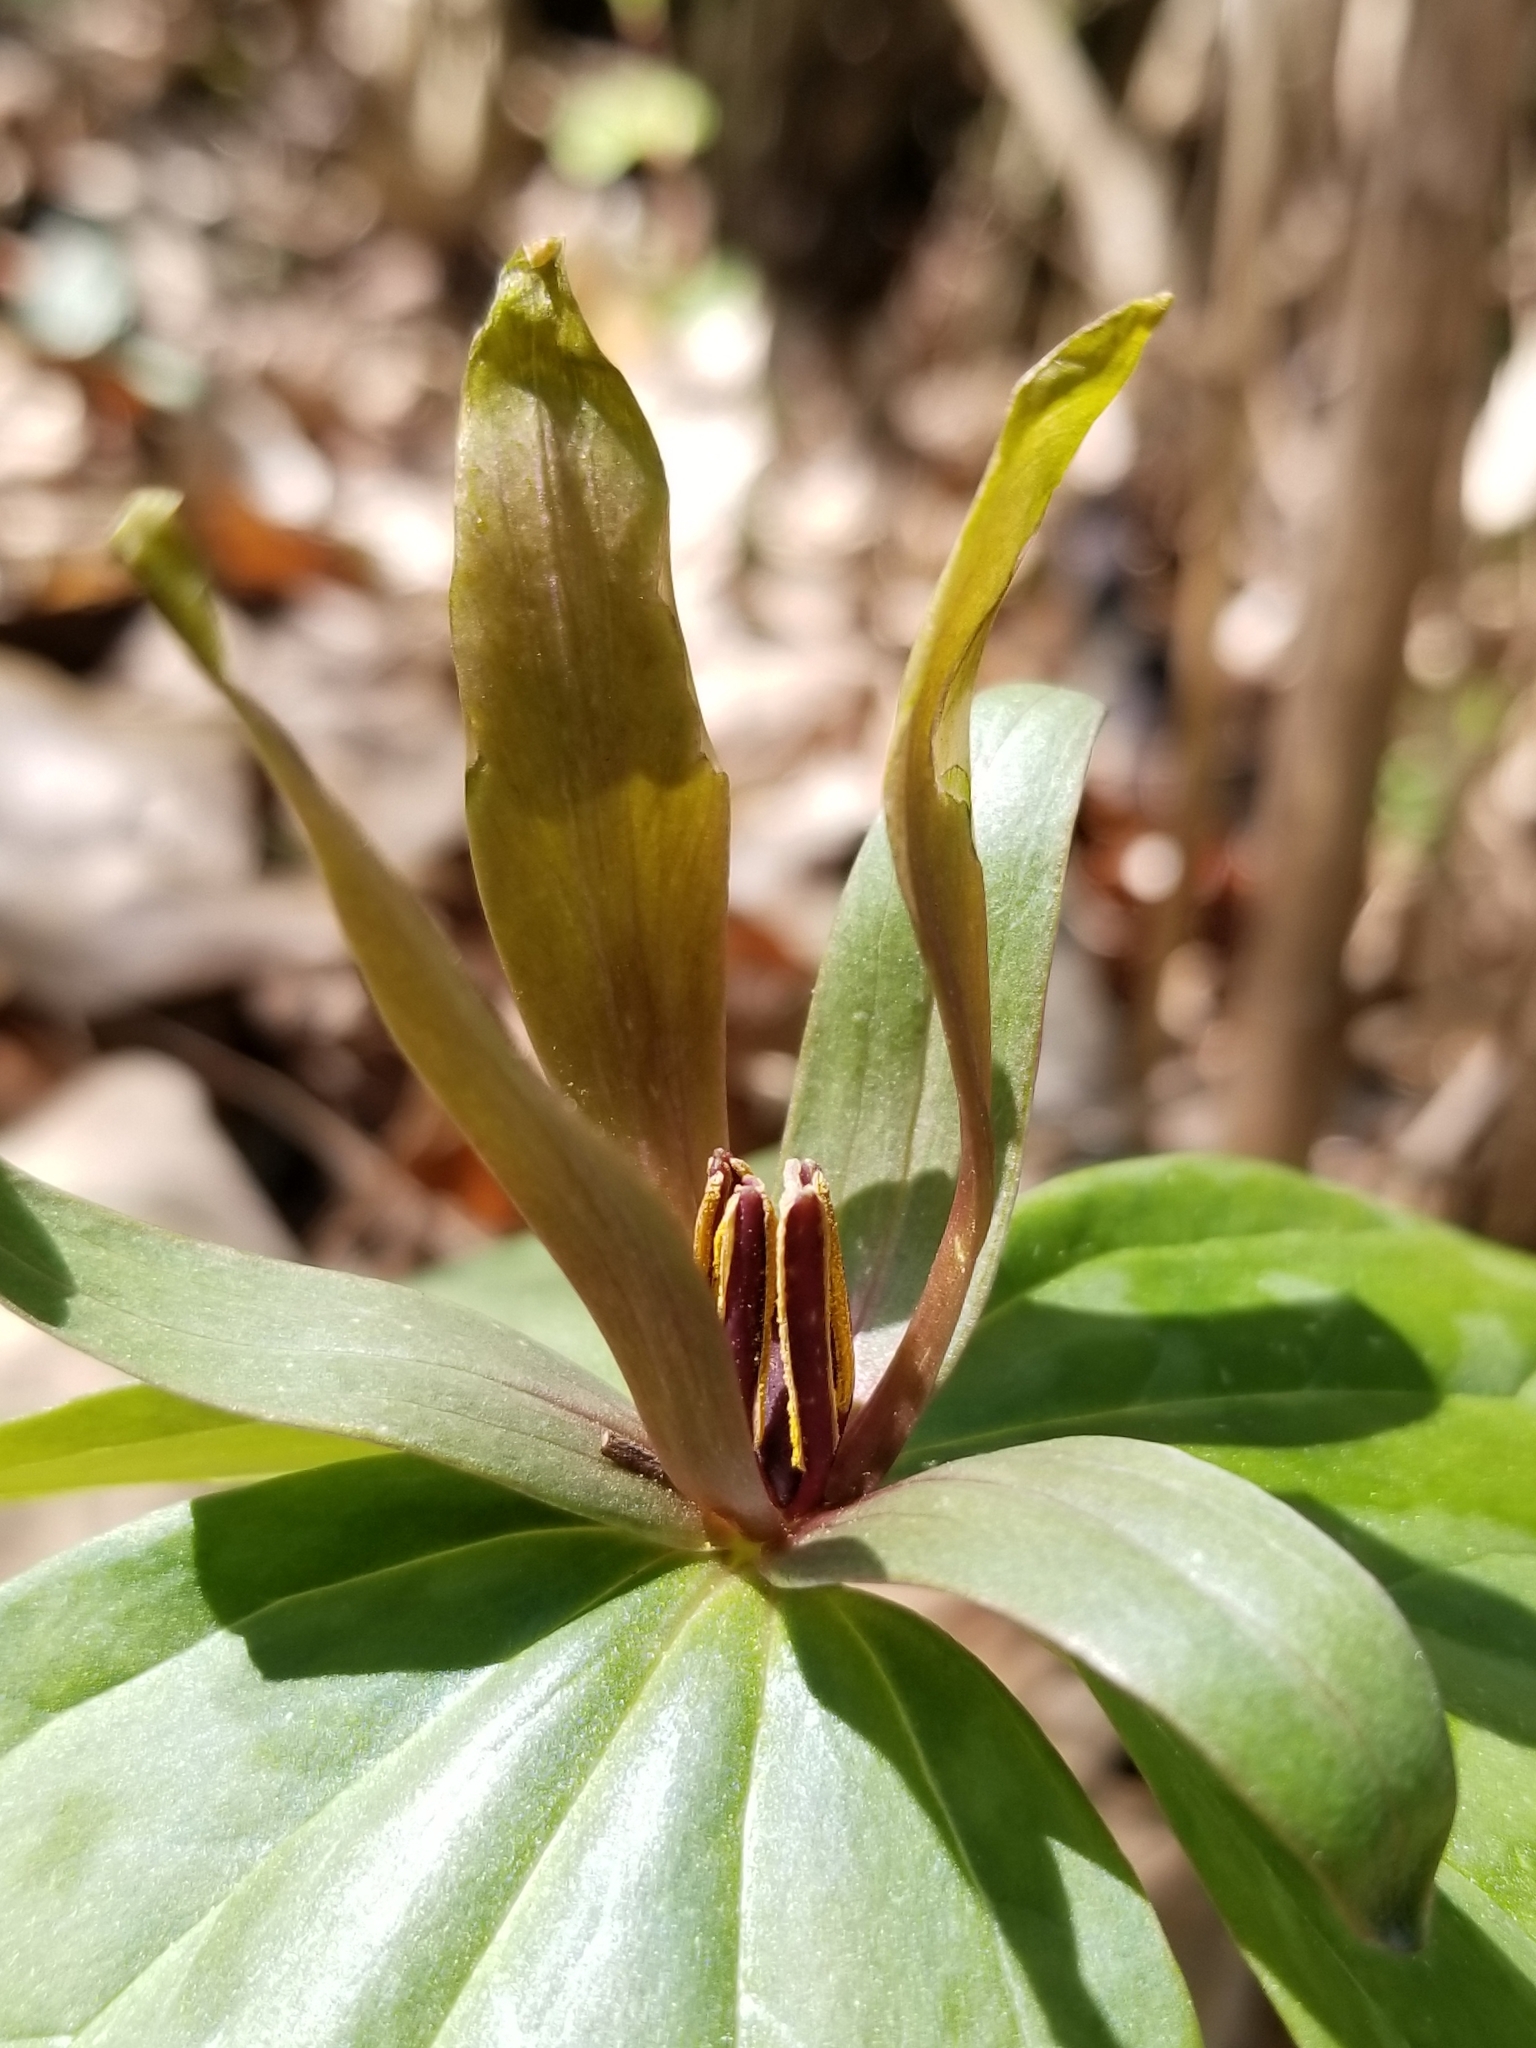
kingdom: Plantae
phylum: Tracheophyta
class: Liliopsida
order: Liliales
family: Melanthiaceae
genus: Trillium
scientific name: Trillium cuneatum
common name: Cuneate trillium
